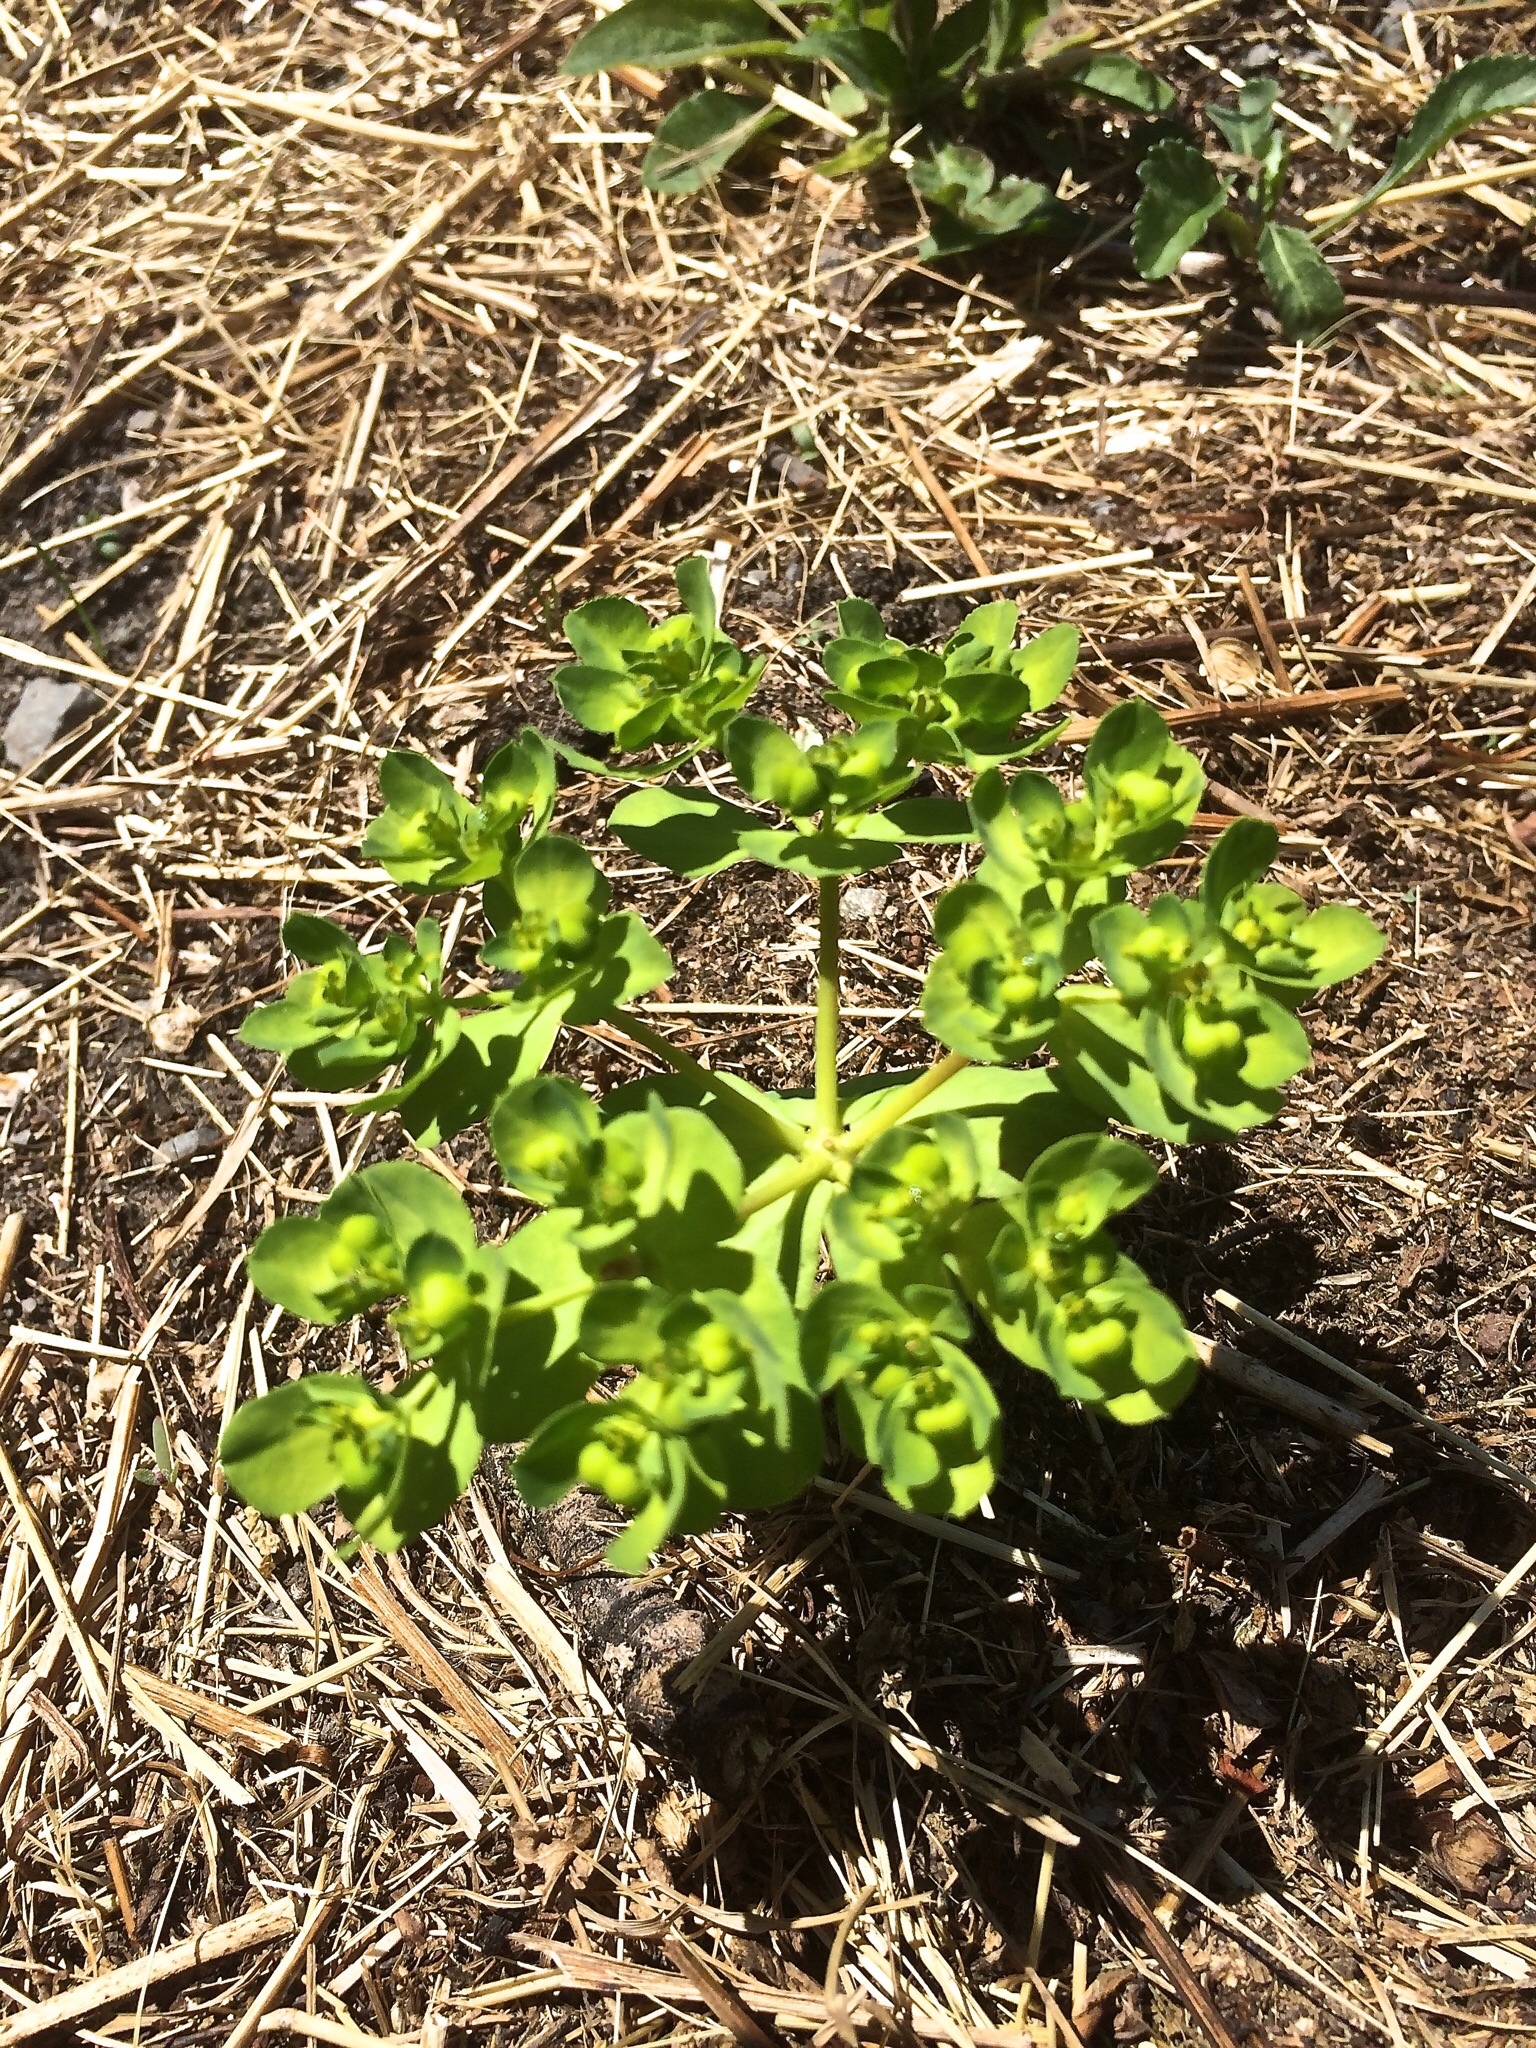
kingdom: Plantae
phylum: Tracheophyta
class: Magnoliopsida
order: Malpighiales
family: Euphorbiaceae
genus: Euphorbia
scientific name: Euphorbia helioscopia
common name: Sun spurge
